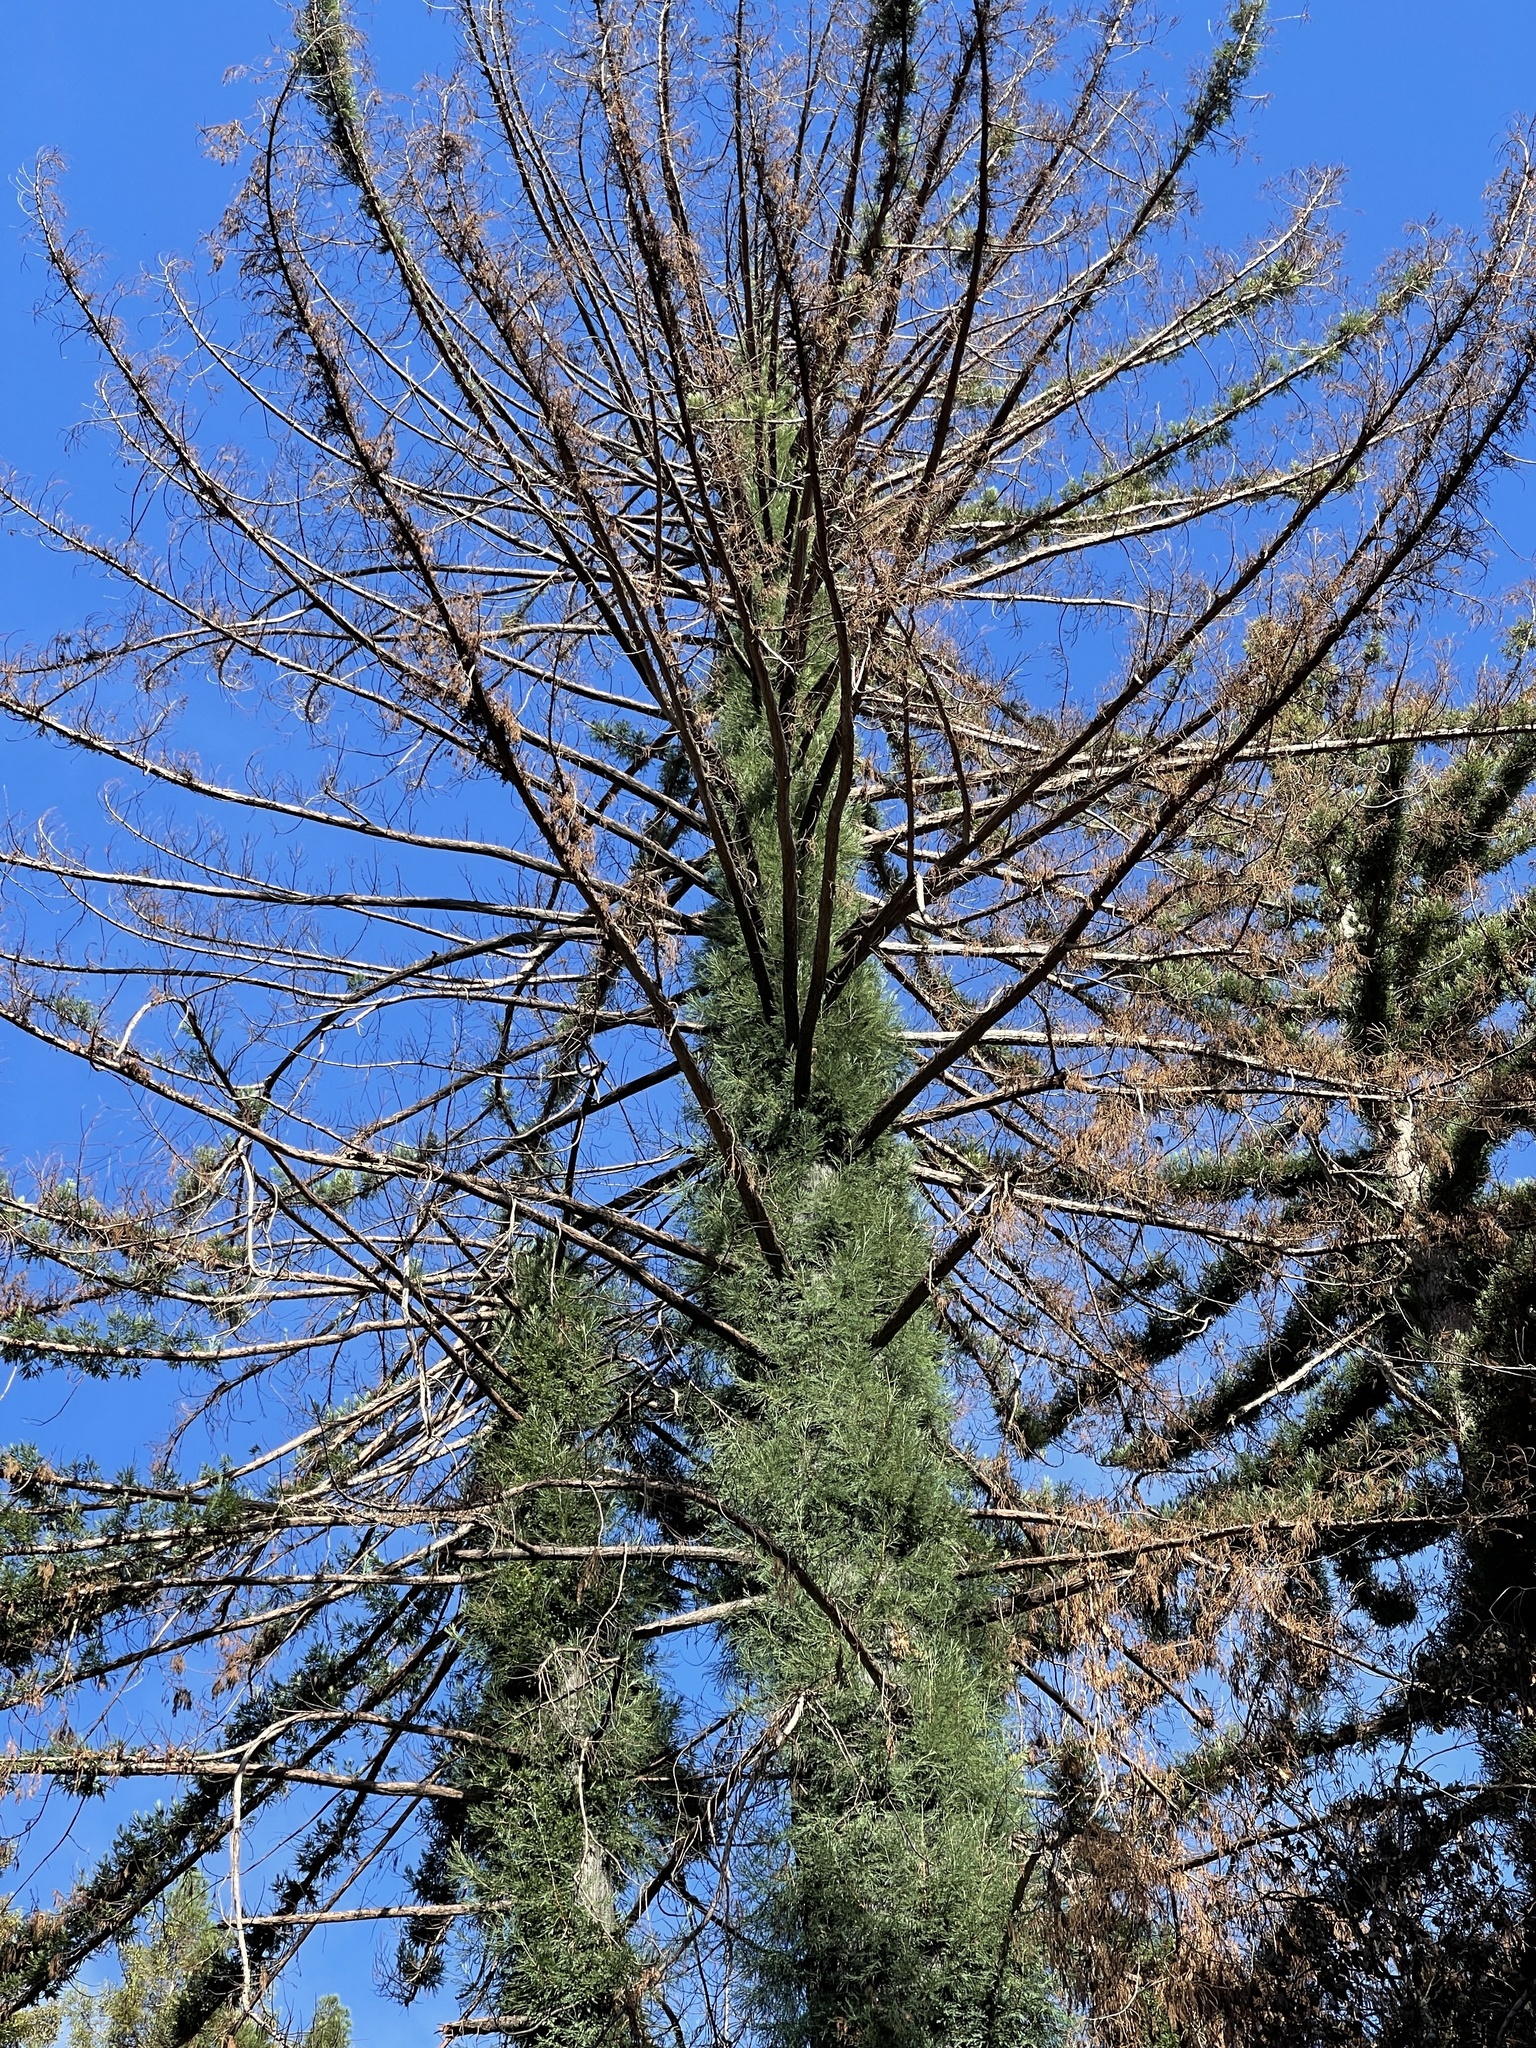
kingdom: Plantae
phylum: Tracheophyta
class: Pinopsida
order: Pinales
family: Cupressaceae
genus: Sequoia
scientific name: Sequoia sempervirens
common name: Coast redwood
